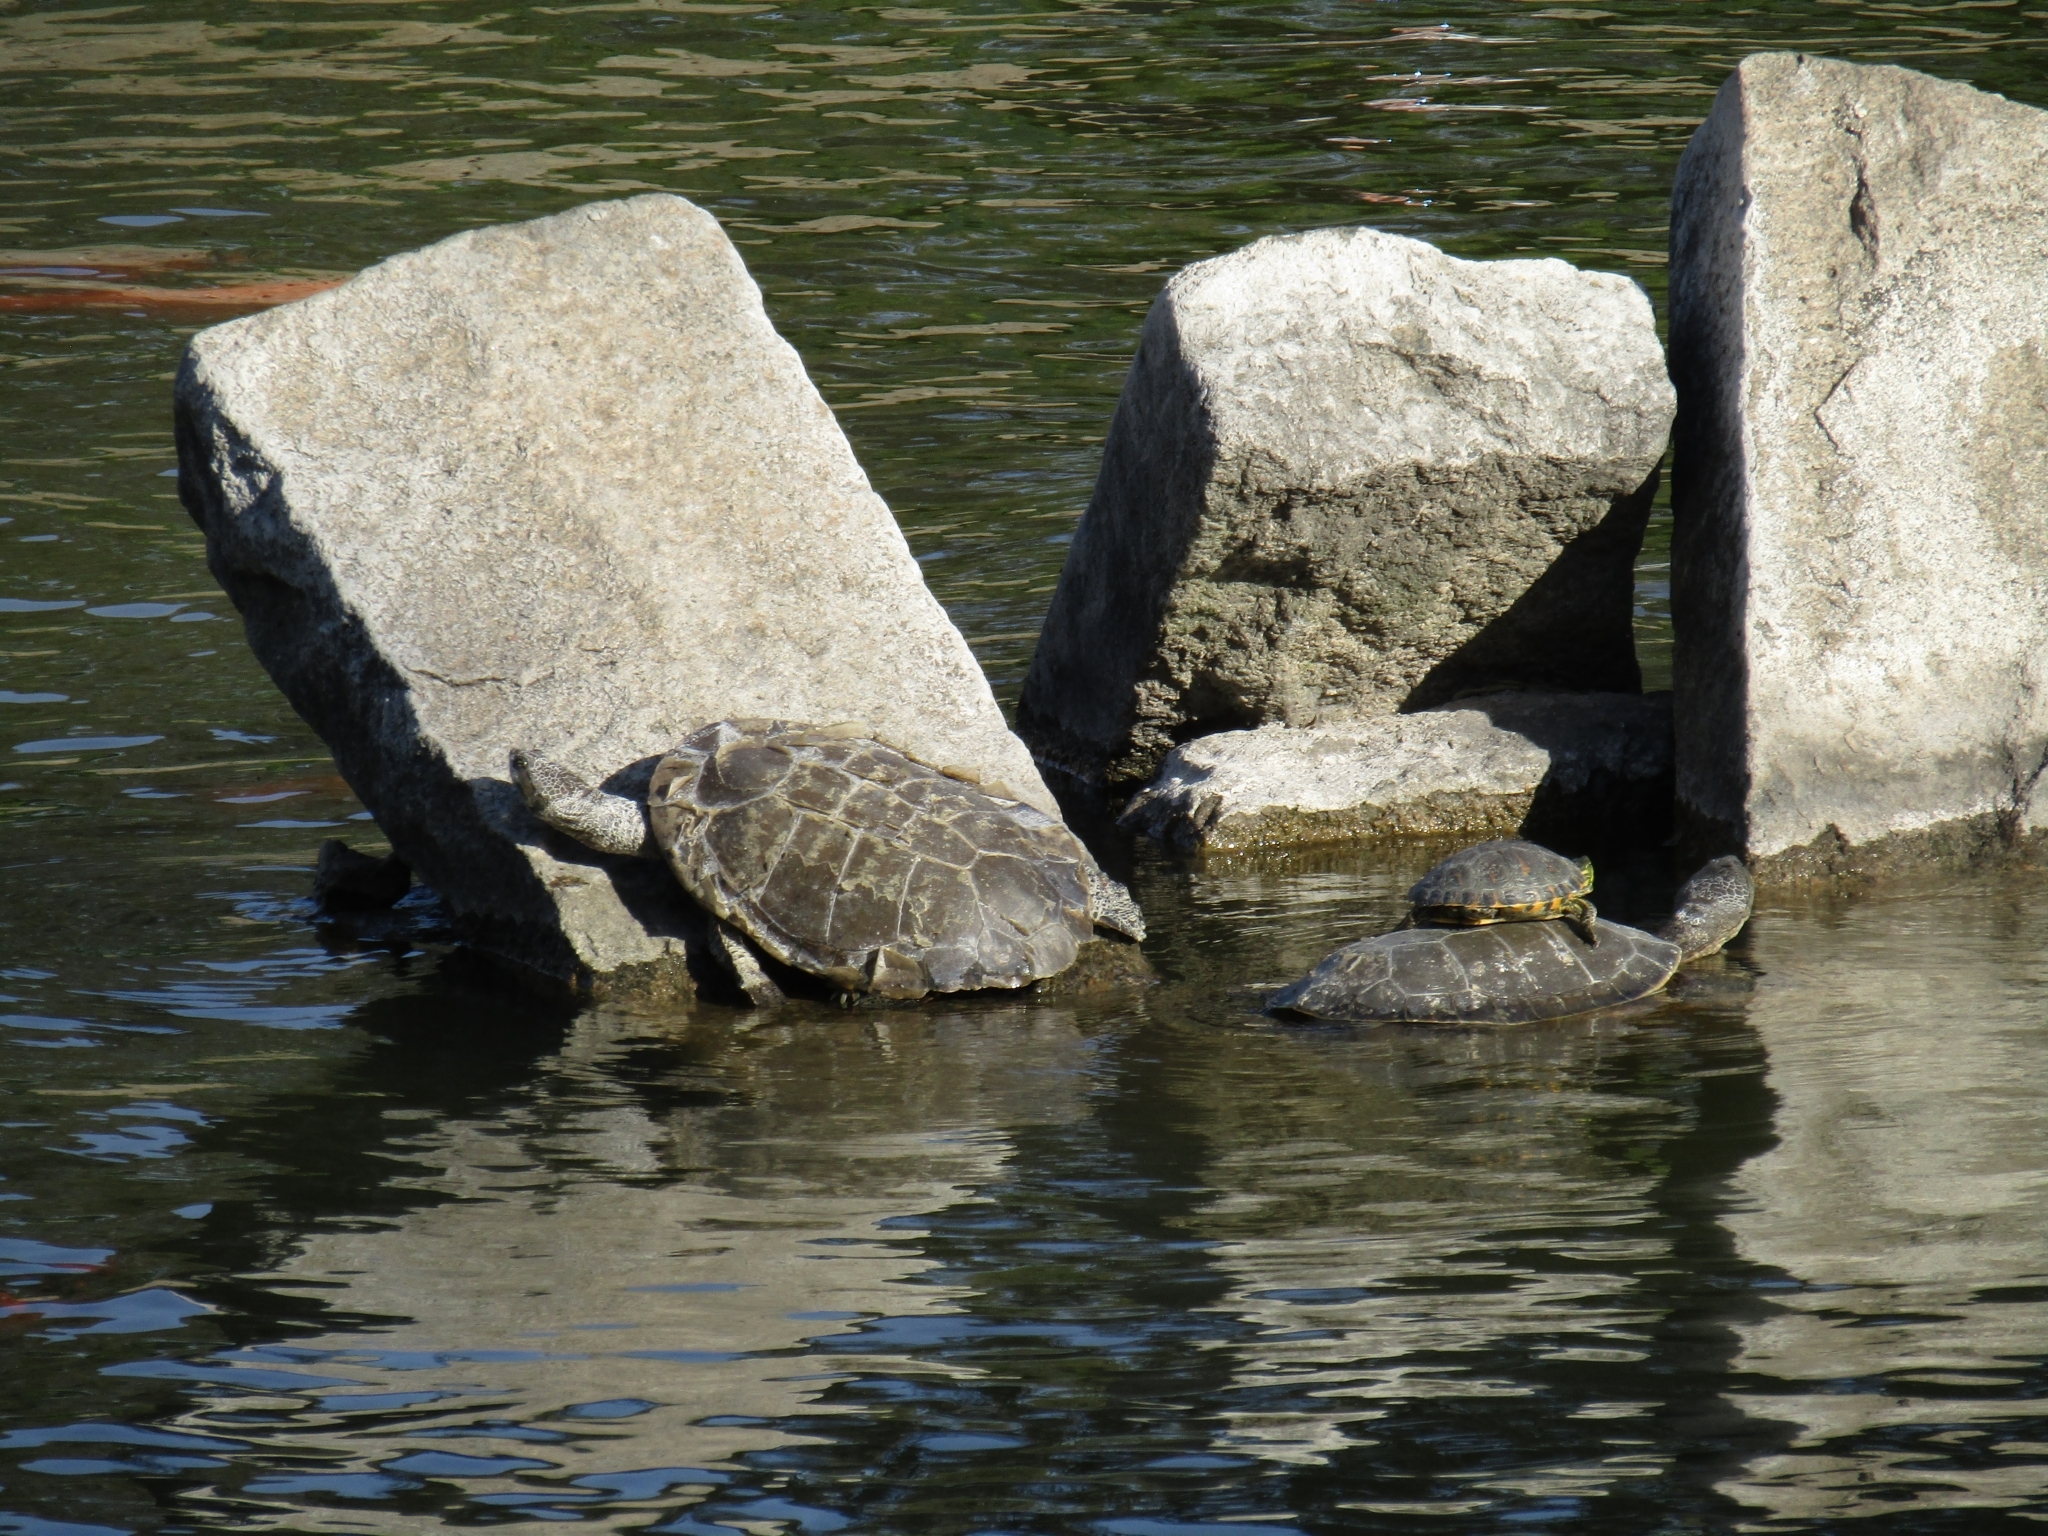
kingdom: Animalia
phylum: Chordata
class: Testudines
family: Chelidae
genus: Phrynops
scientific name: Phrynops hilarii
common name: Side-necked turtle of saint hillaire
